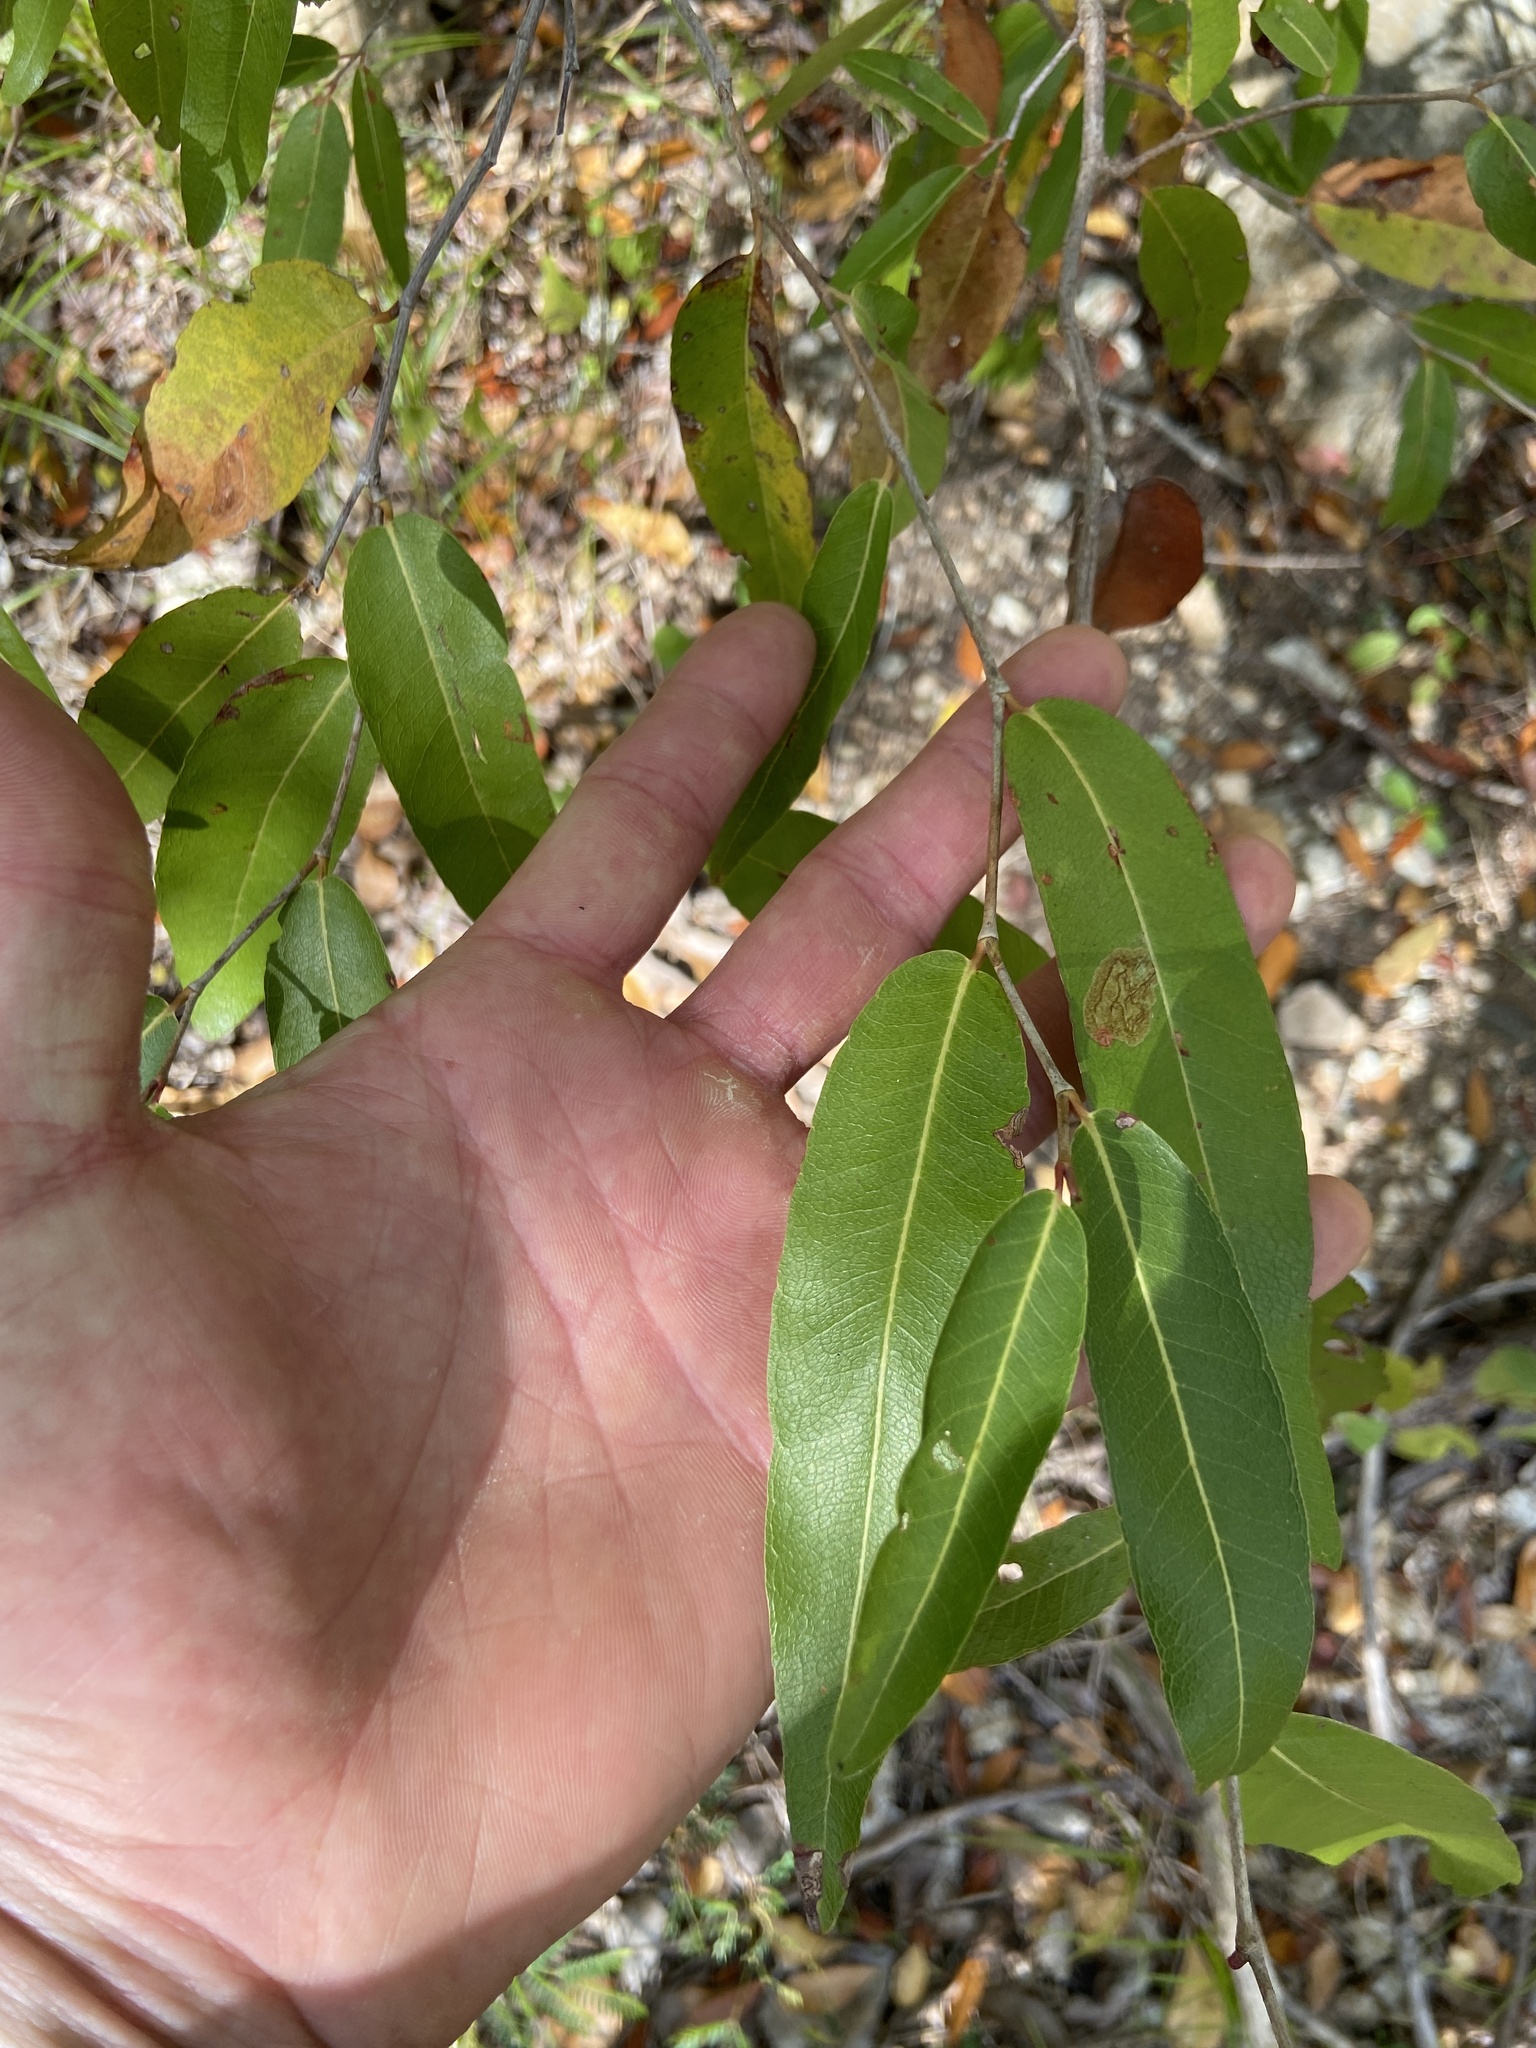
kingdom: Plantae
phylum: Tracheophyta
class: Magnoliopsida
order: Caryophyllales
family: Polygonaceae
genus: Coccoloba
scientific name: Coccoloba microstachya
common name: Puckout
